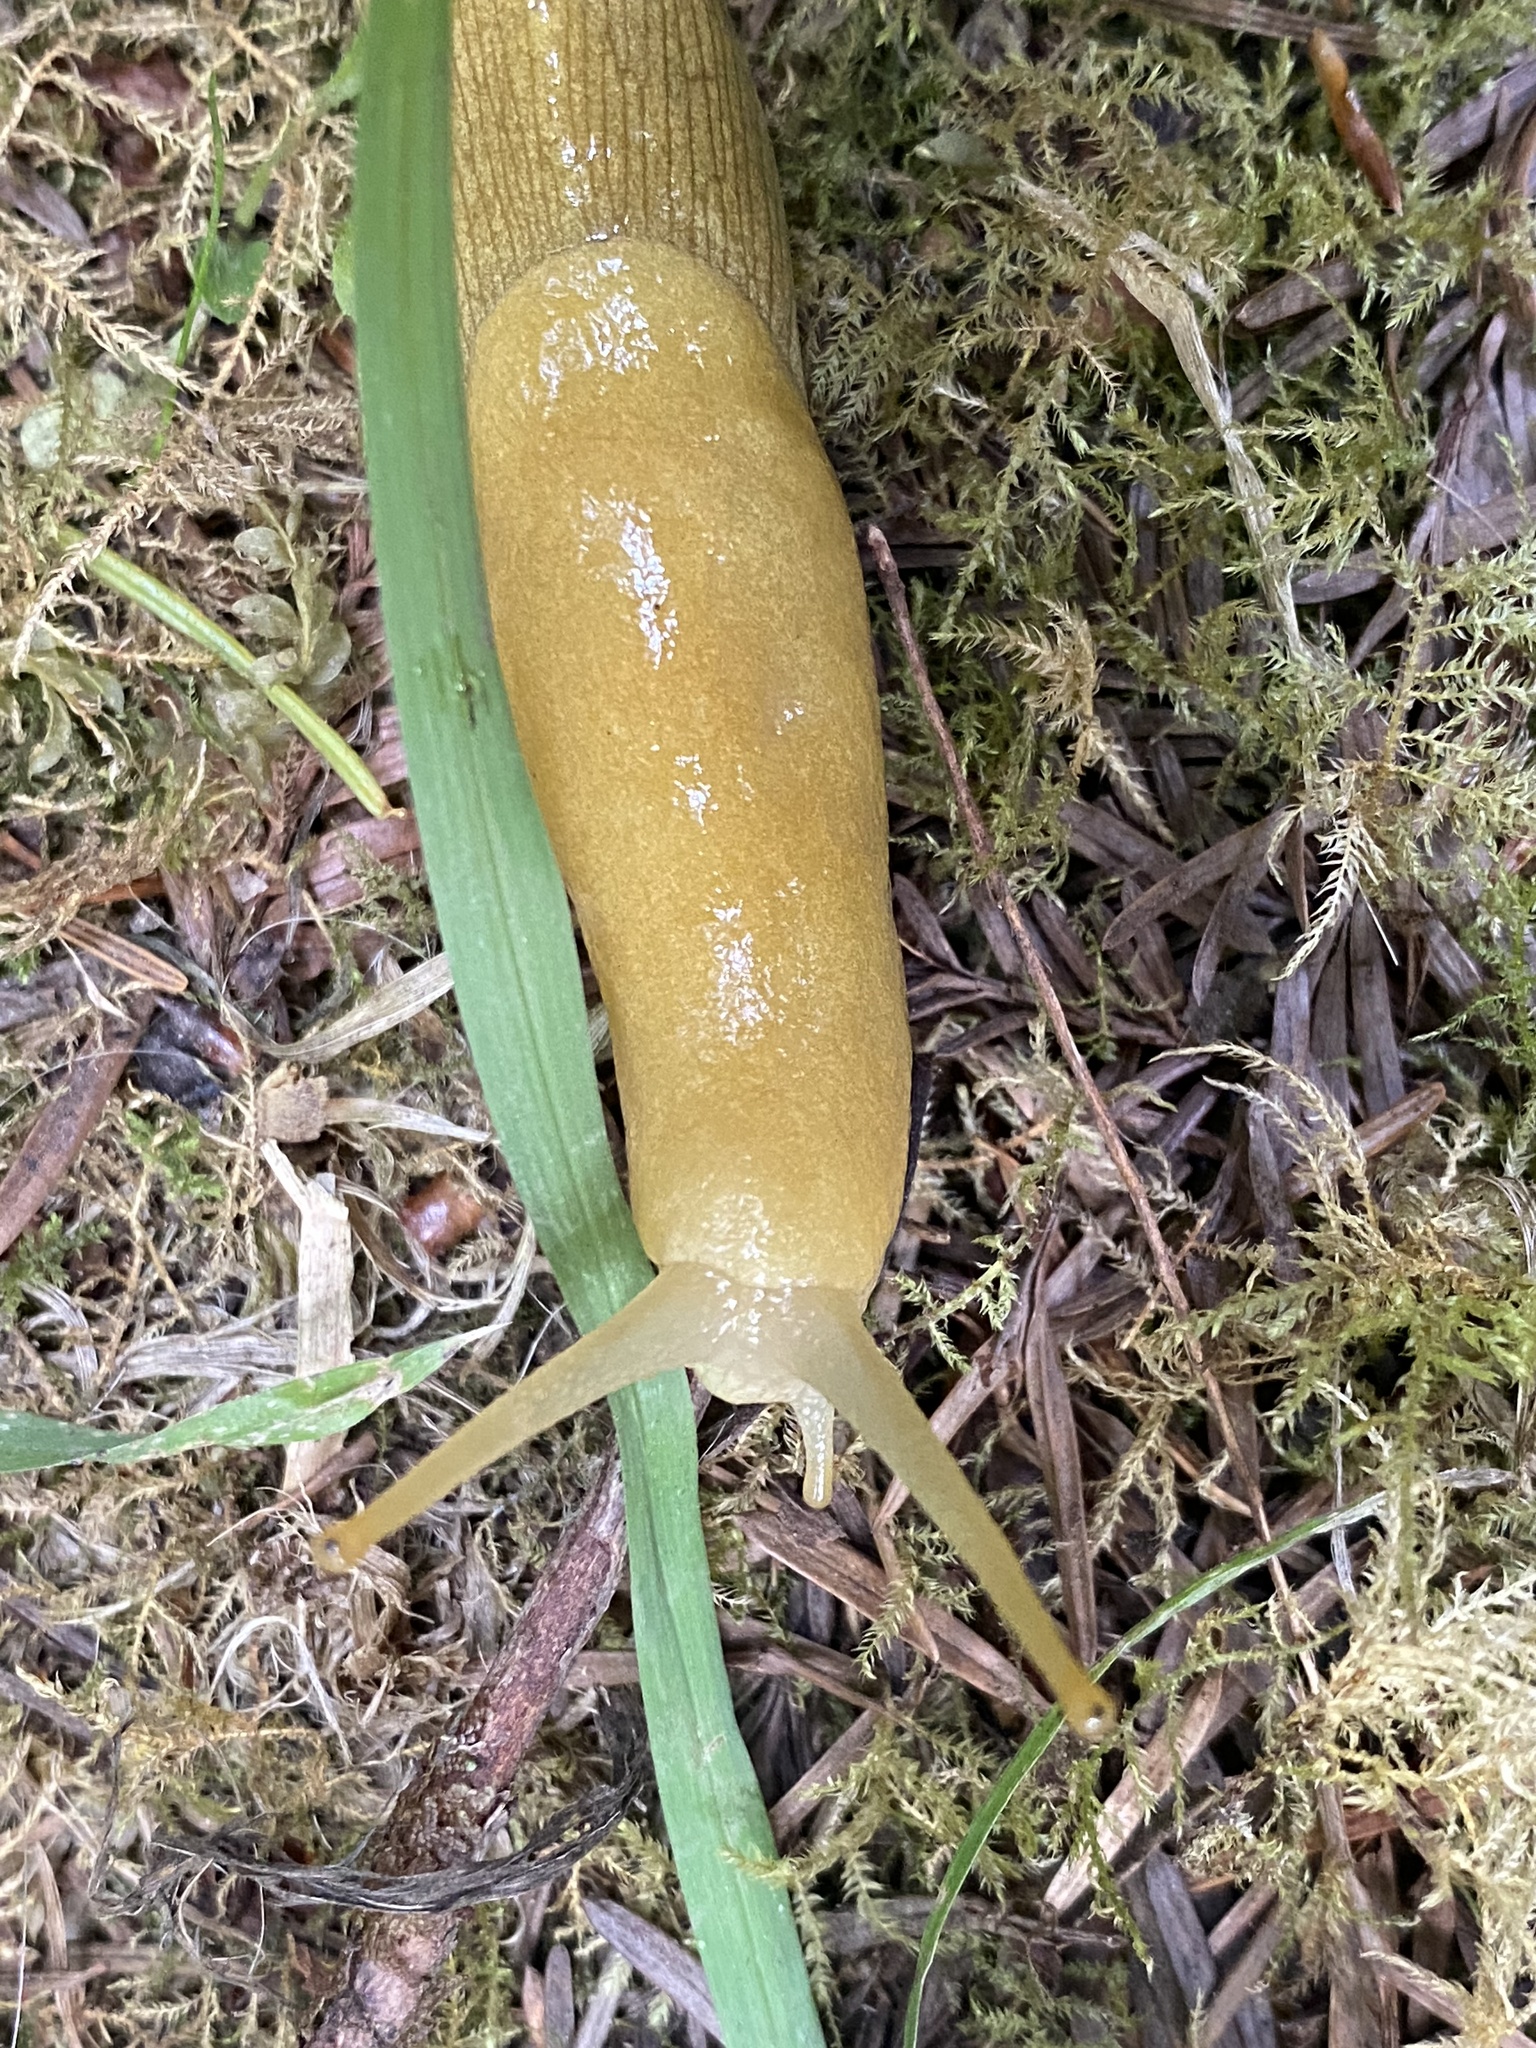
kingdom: Animalia
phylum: Mollusca
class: Gastropoda
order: Stylommatophora
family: Ariolimacidae
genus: Ariolimax
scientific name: Ariolimax columbianus
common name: Pacific banana slug
